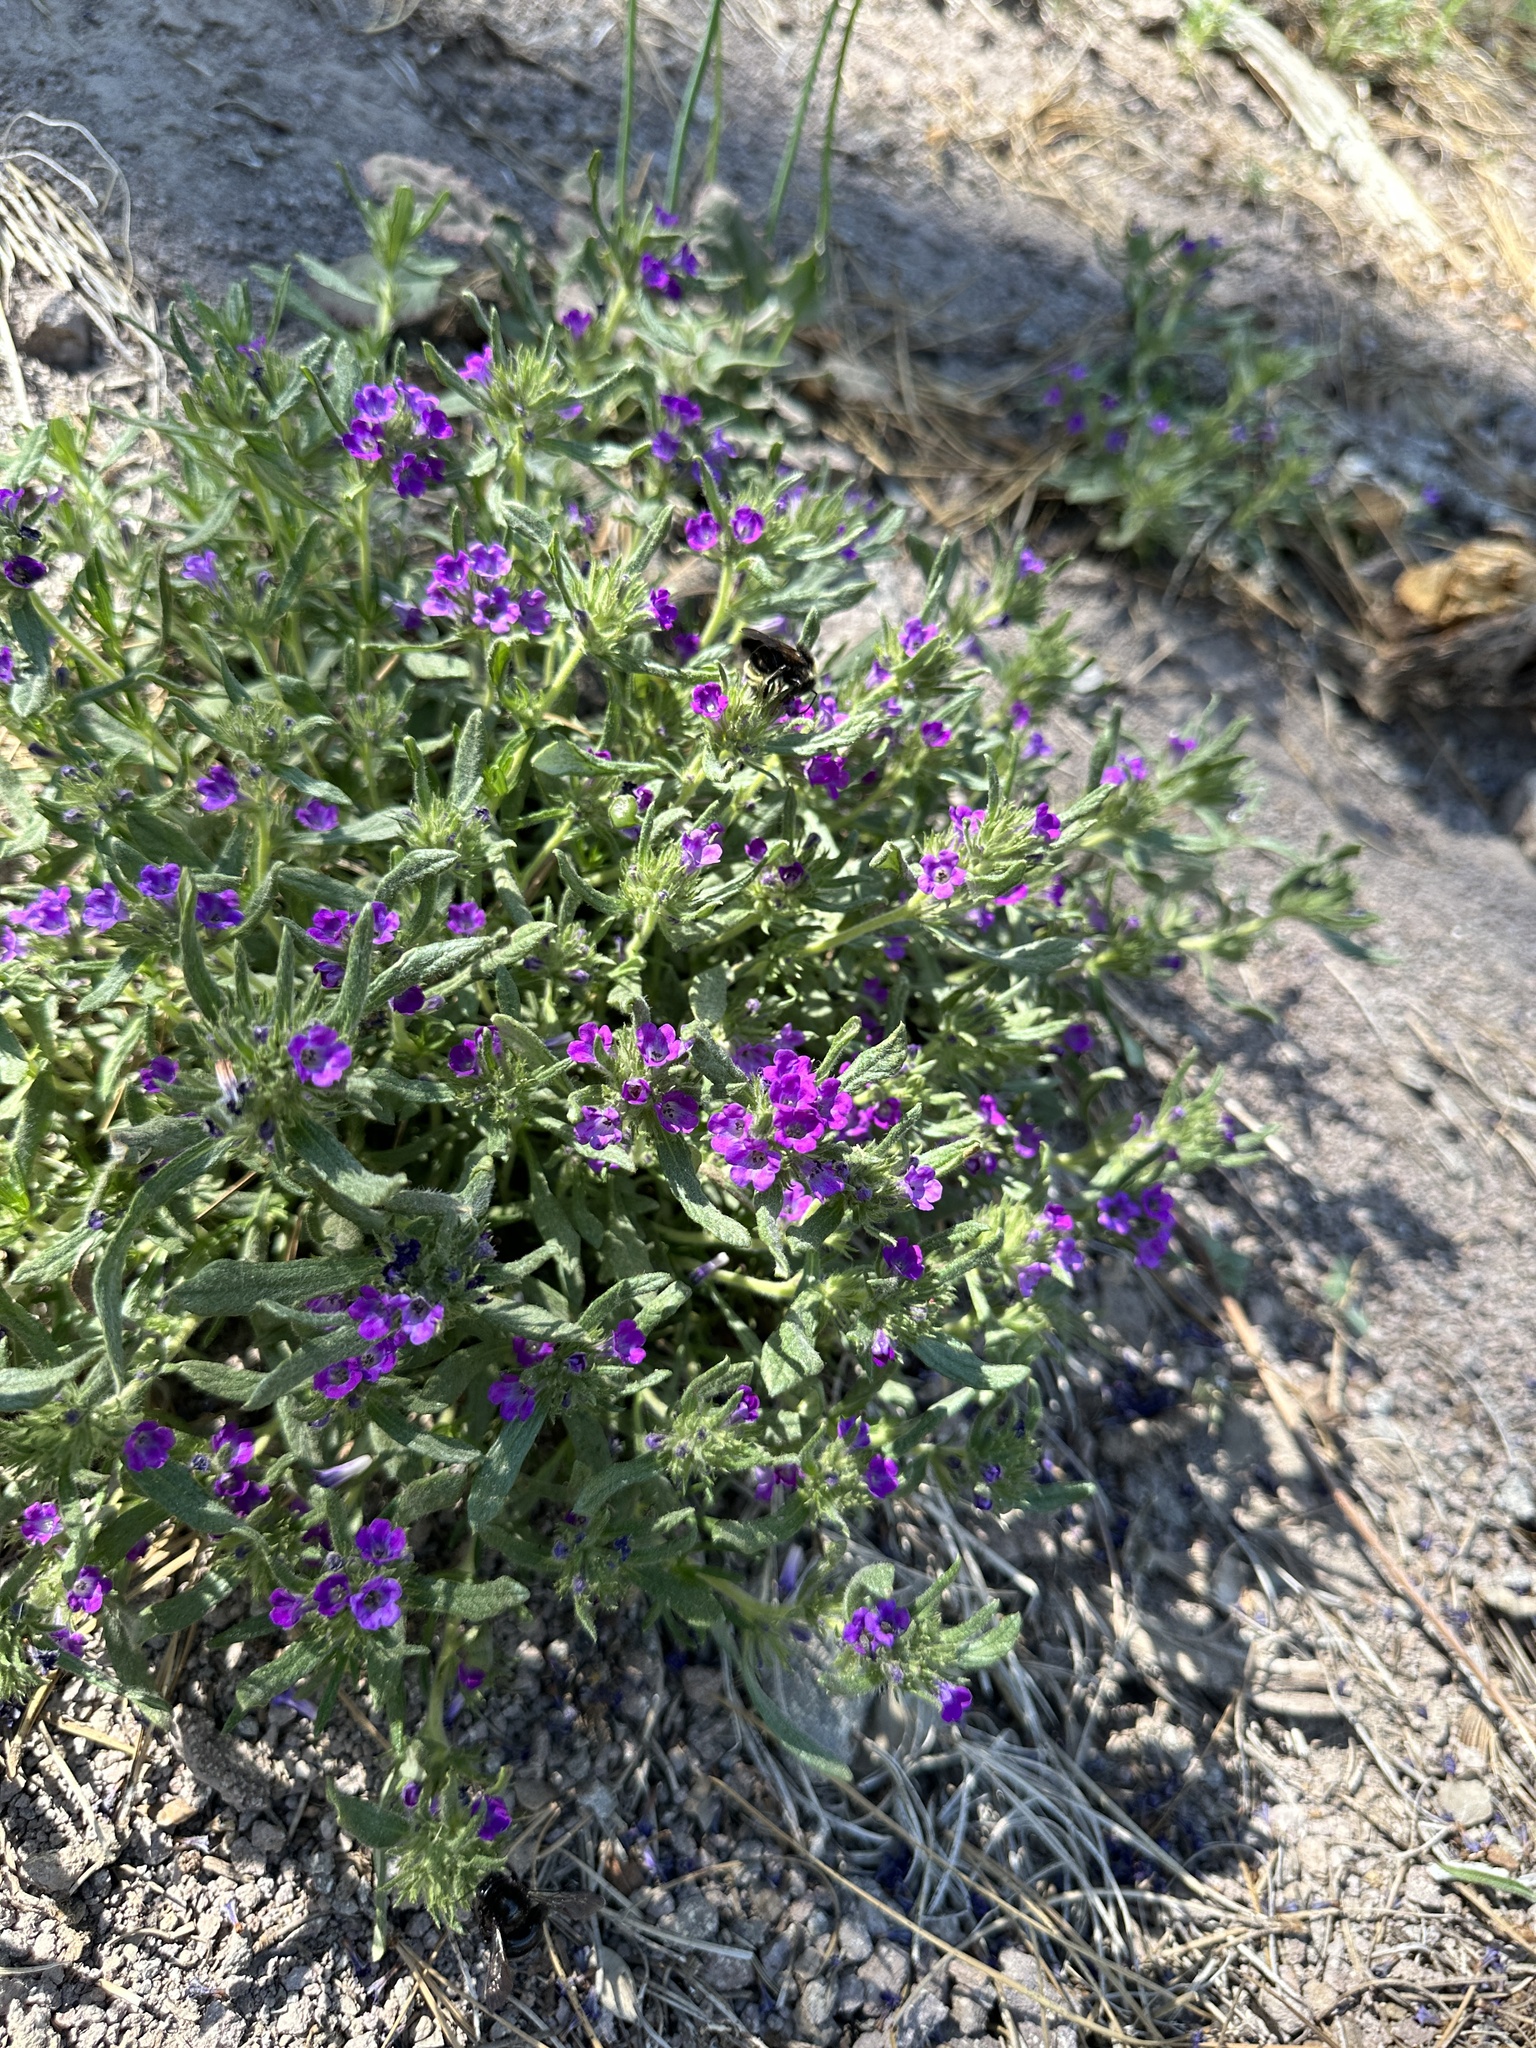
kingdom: Plantae
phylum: Tracheophyta
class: Magnoliopsida
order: Boraginales
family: Namaceae
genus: Nama
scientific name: Nama lobbii
